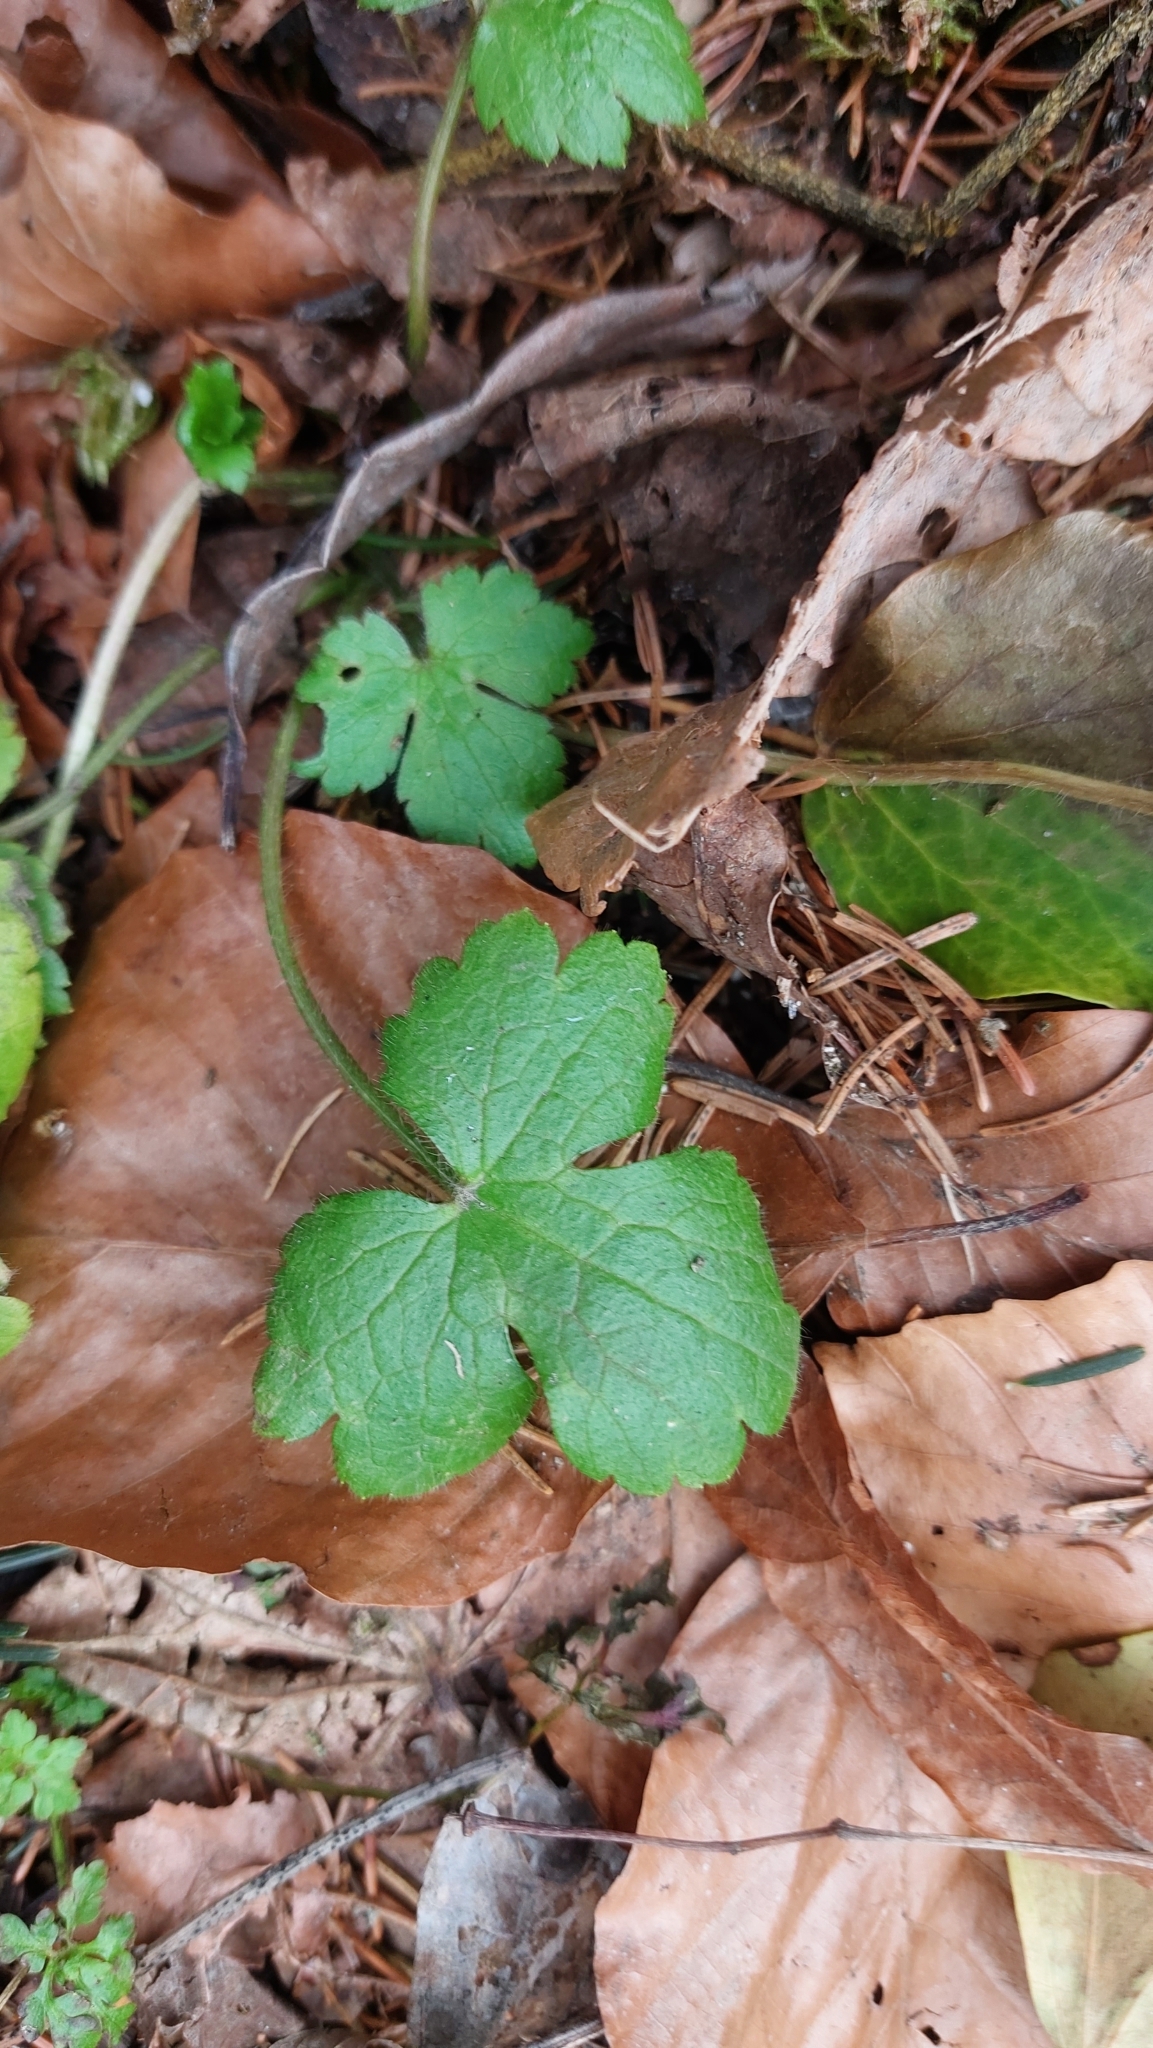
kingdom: Plantae
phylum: Tracheophyta
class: Magnoliopsida
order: Ranunculales
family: Ranunculaceae
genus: Ranunculus
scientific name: Ranunculus lanuginosus
